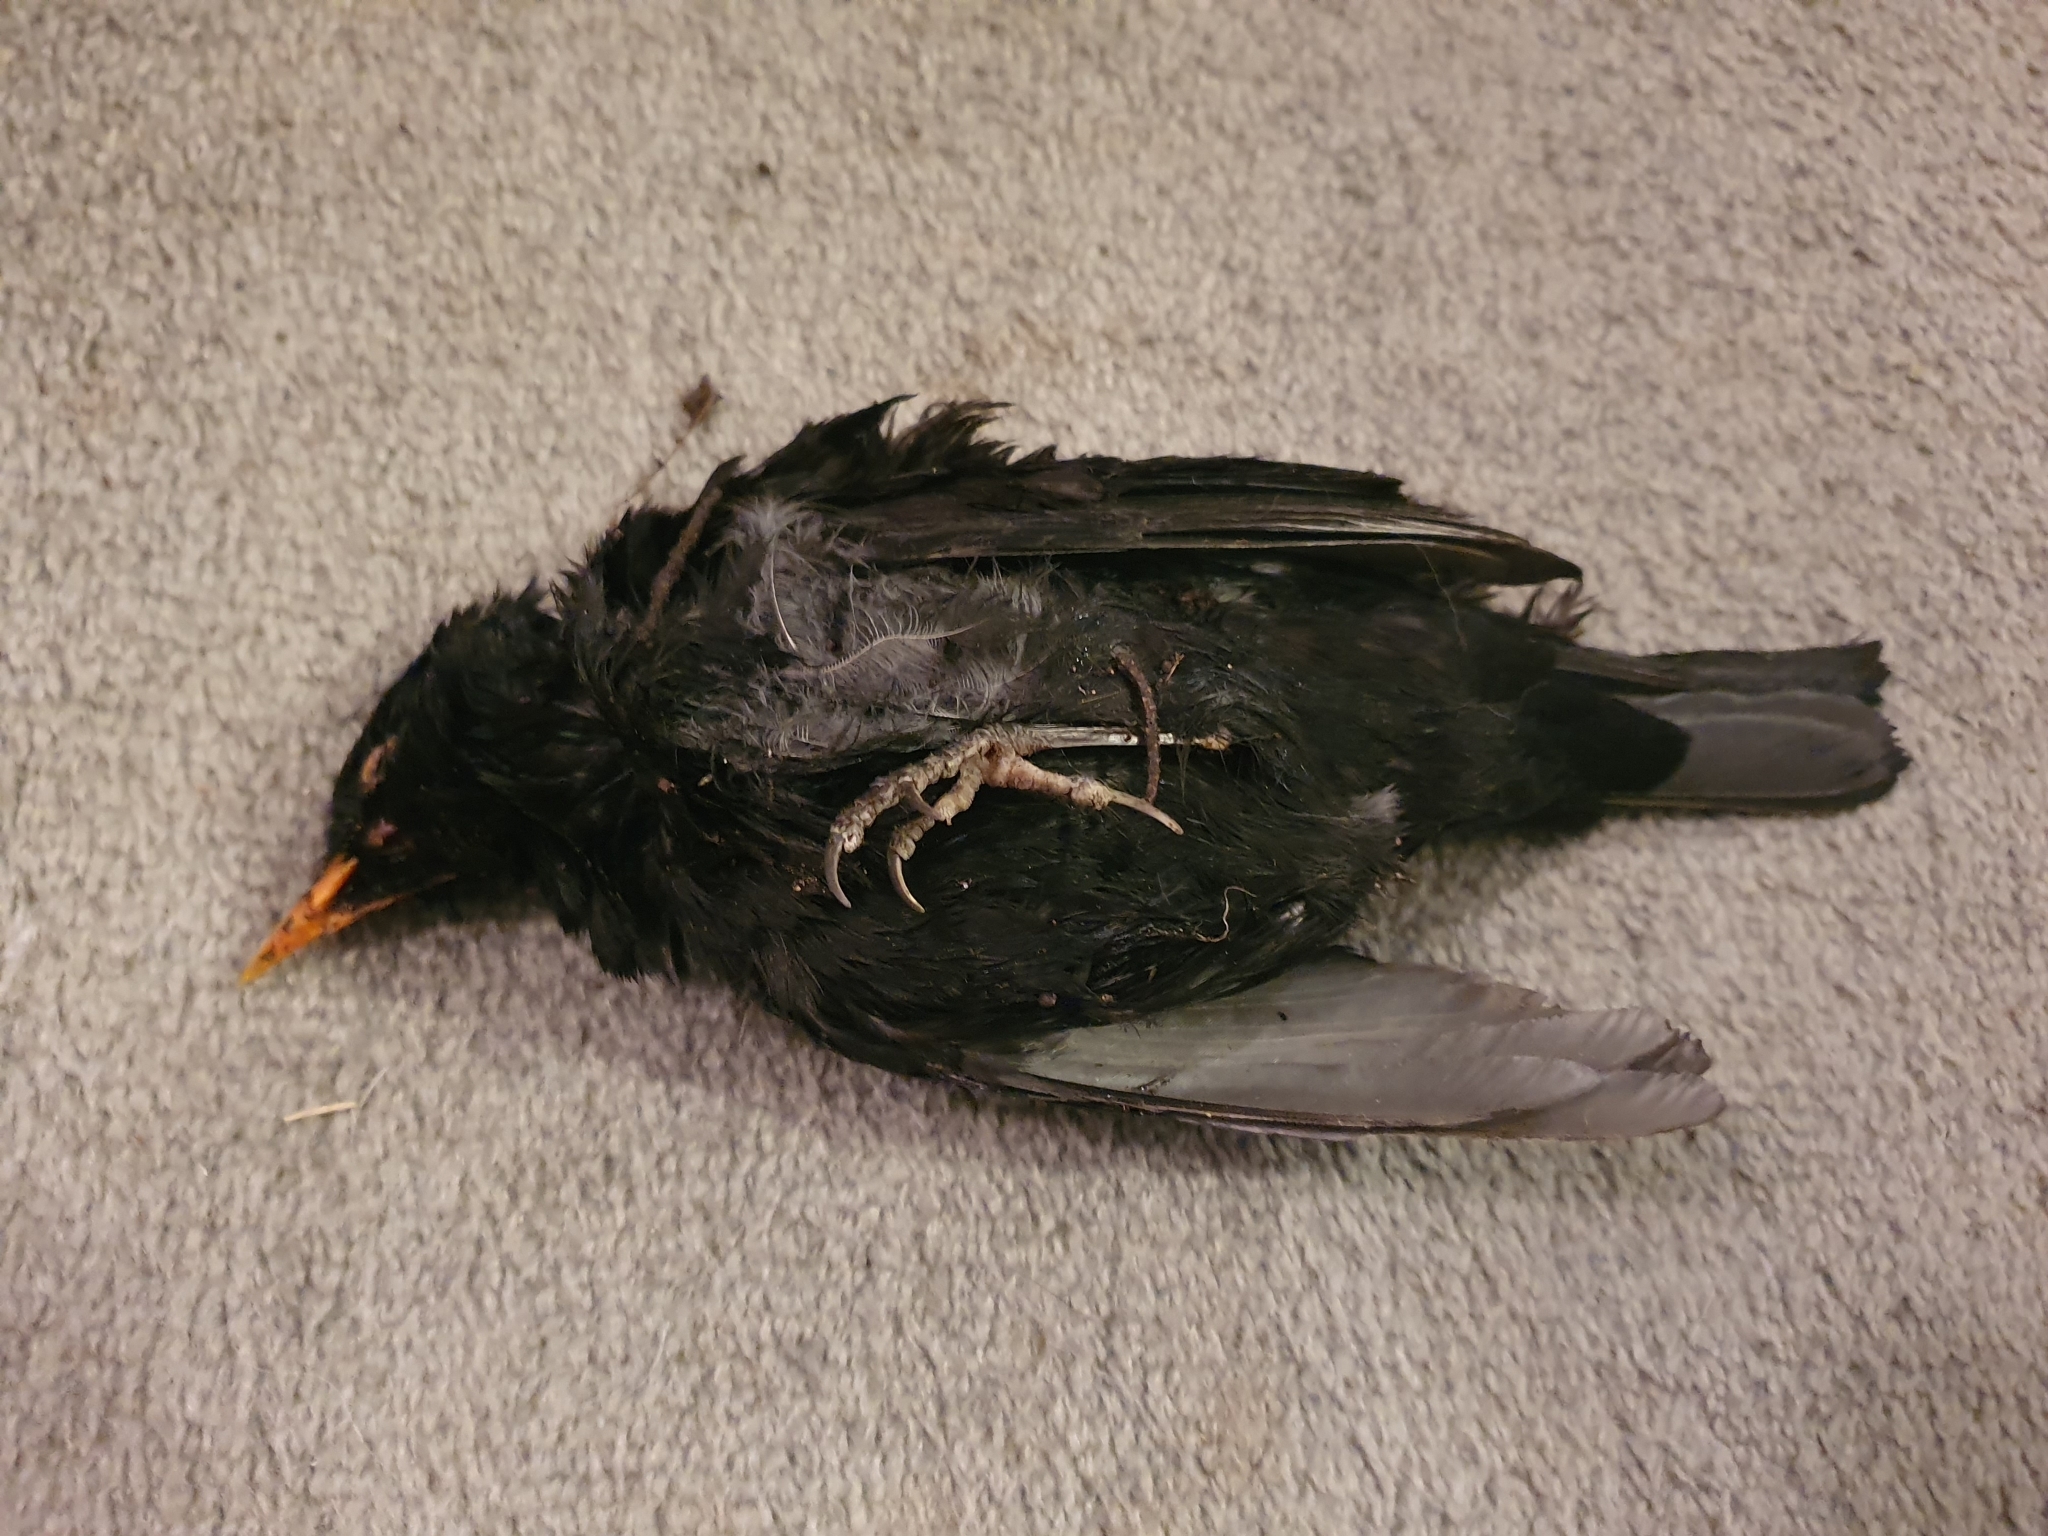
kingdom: Animalia
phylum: Chordata
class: Aves
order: Passeriformes
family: Turdidae
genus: Turdus
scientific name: Turdus merula
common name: Common blackbird
